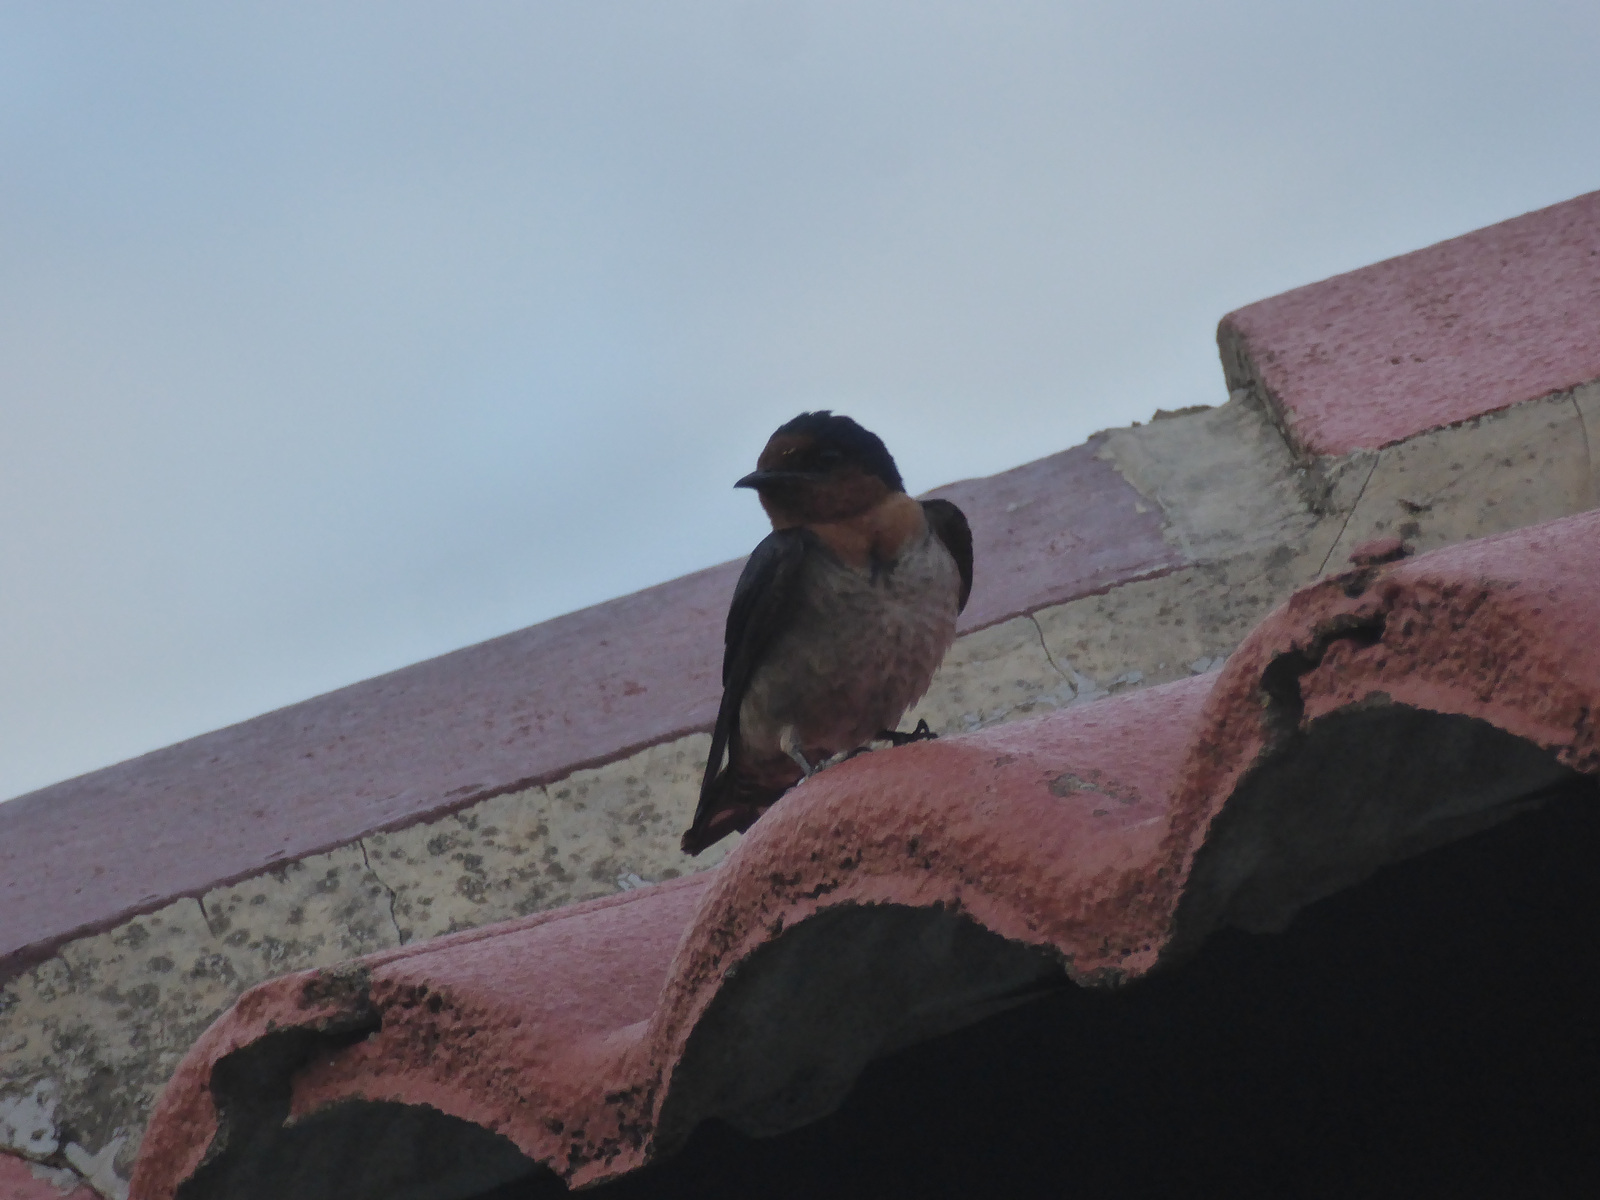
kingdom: Animalia
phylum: Chordata
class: Aves
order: Passeriformes
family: Hirundinidae
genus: Hirundo
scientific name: Hirundo tahitica
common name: Pacific swallow
